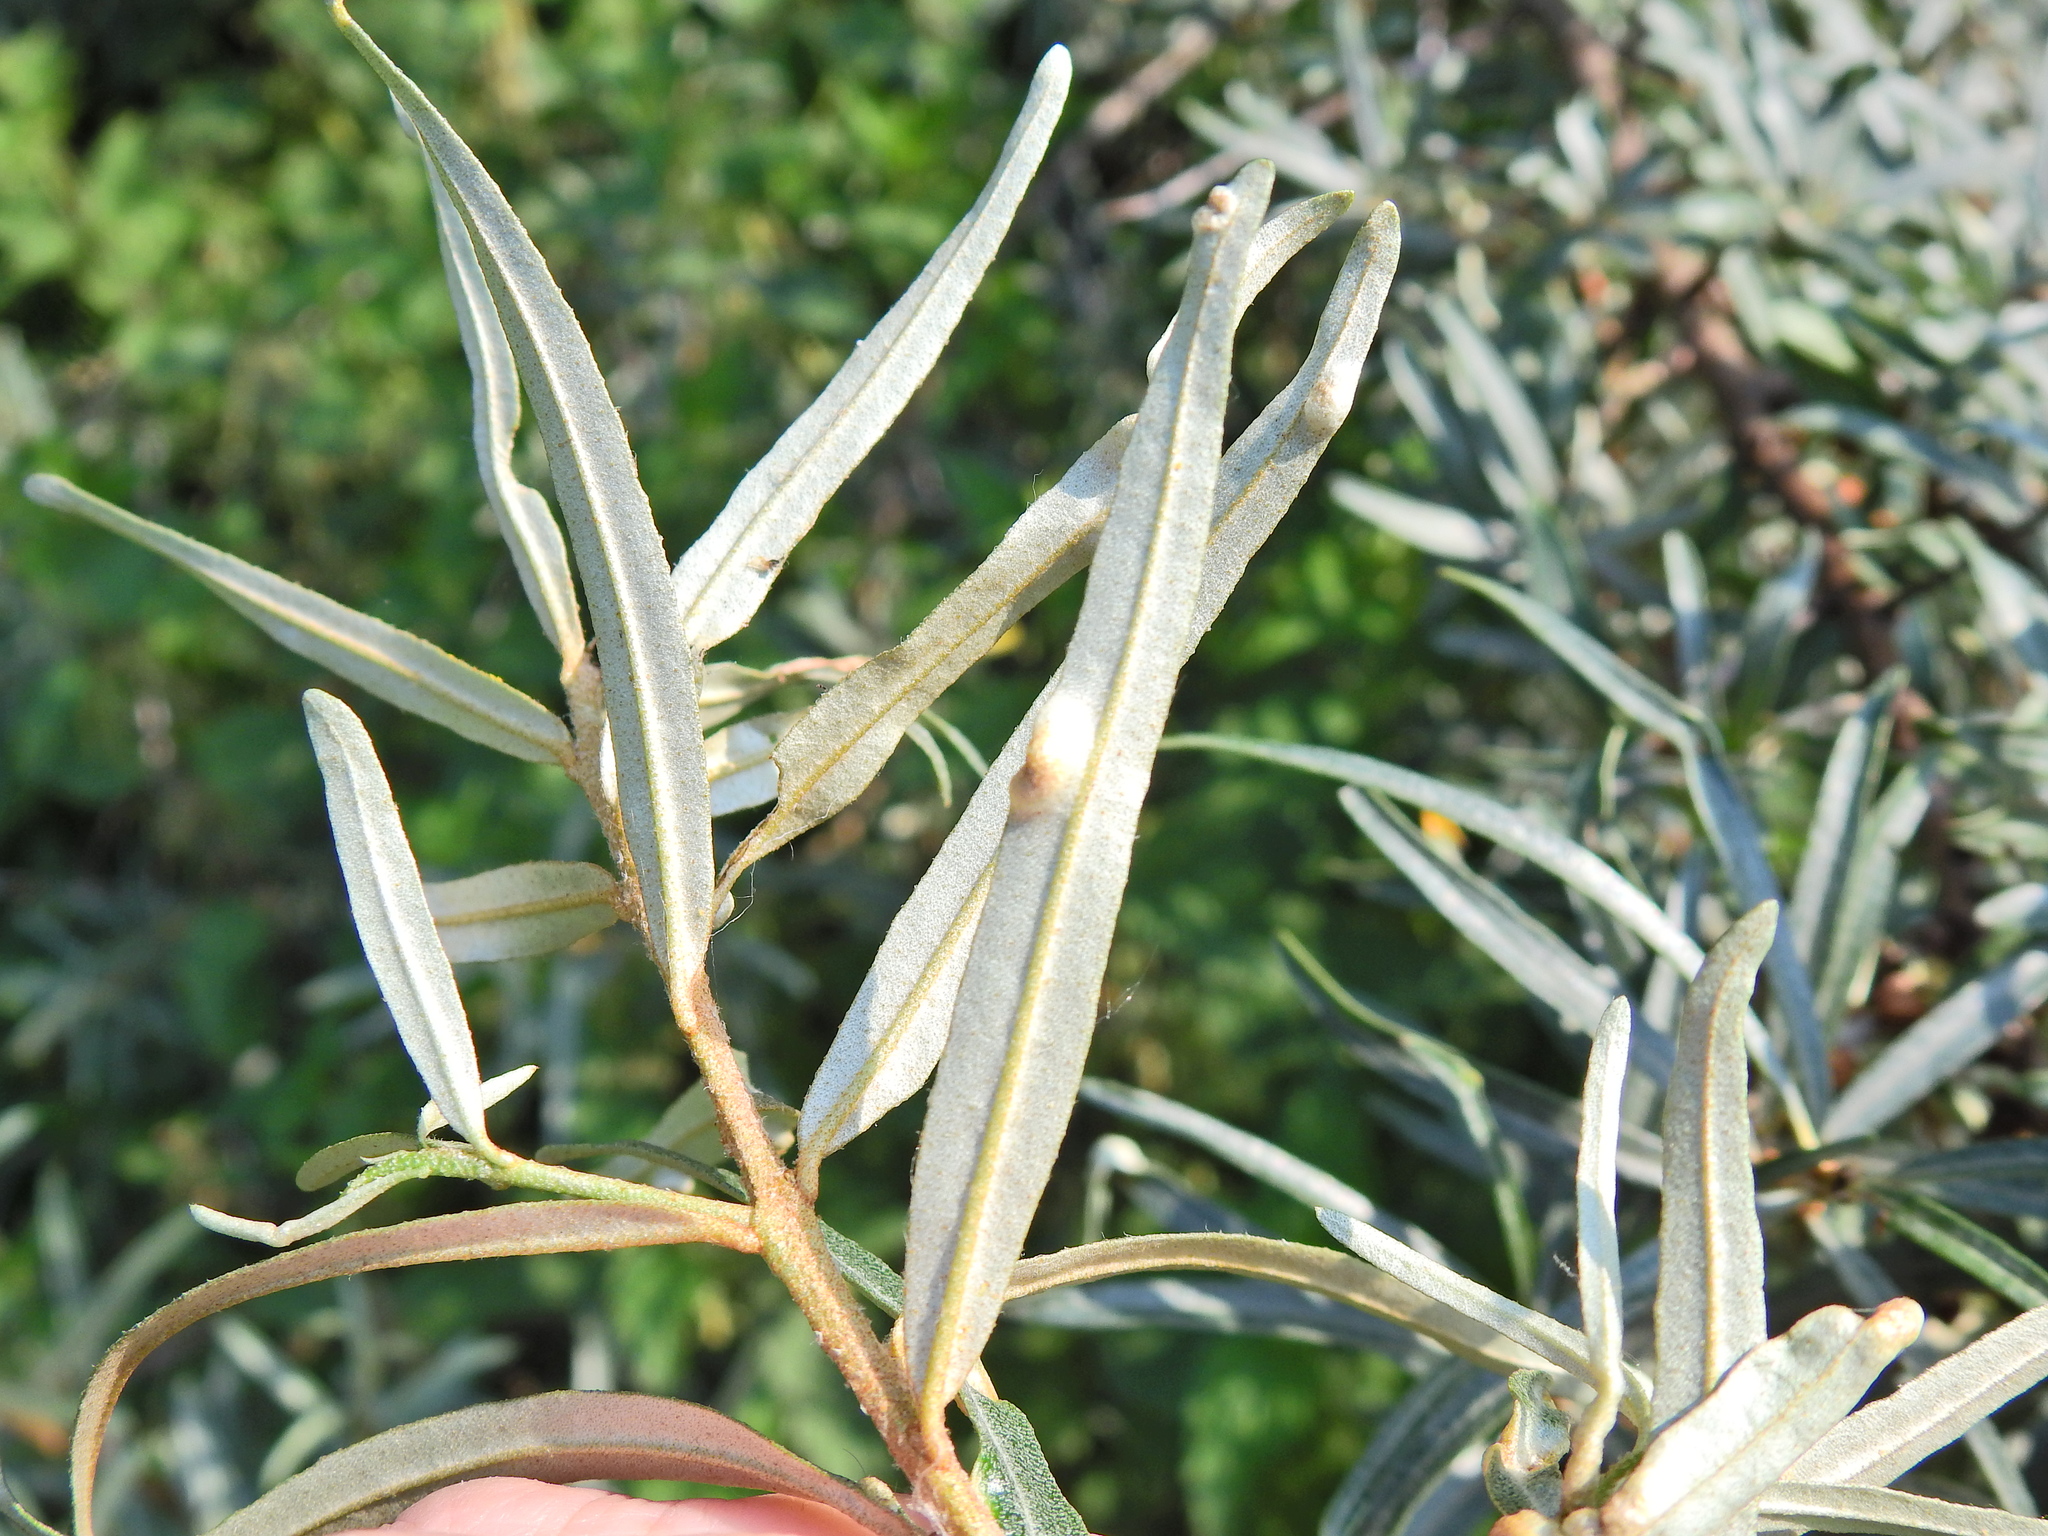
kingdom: Animalia
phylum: Arthropoda
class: Arachnida
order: Trombidiformes
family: Eriophyidae
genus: Aceria
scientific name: Aceria hippophaena
